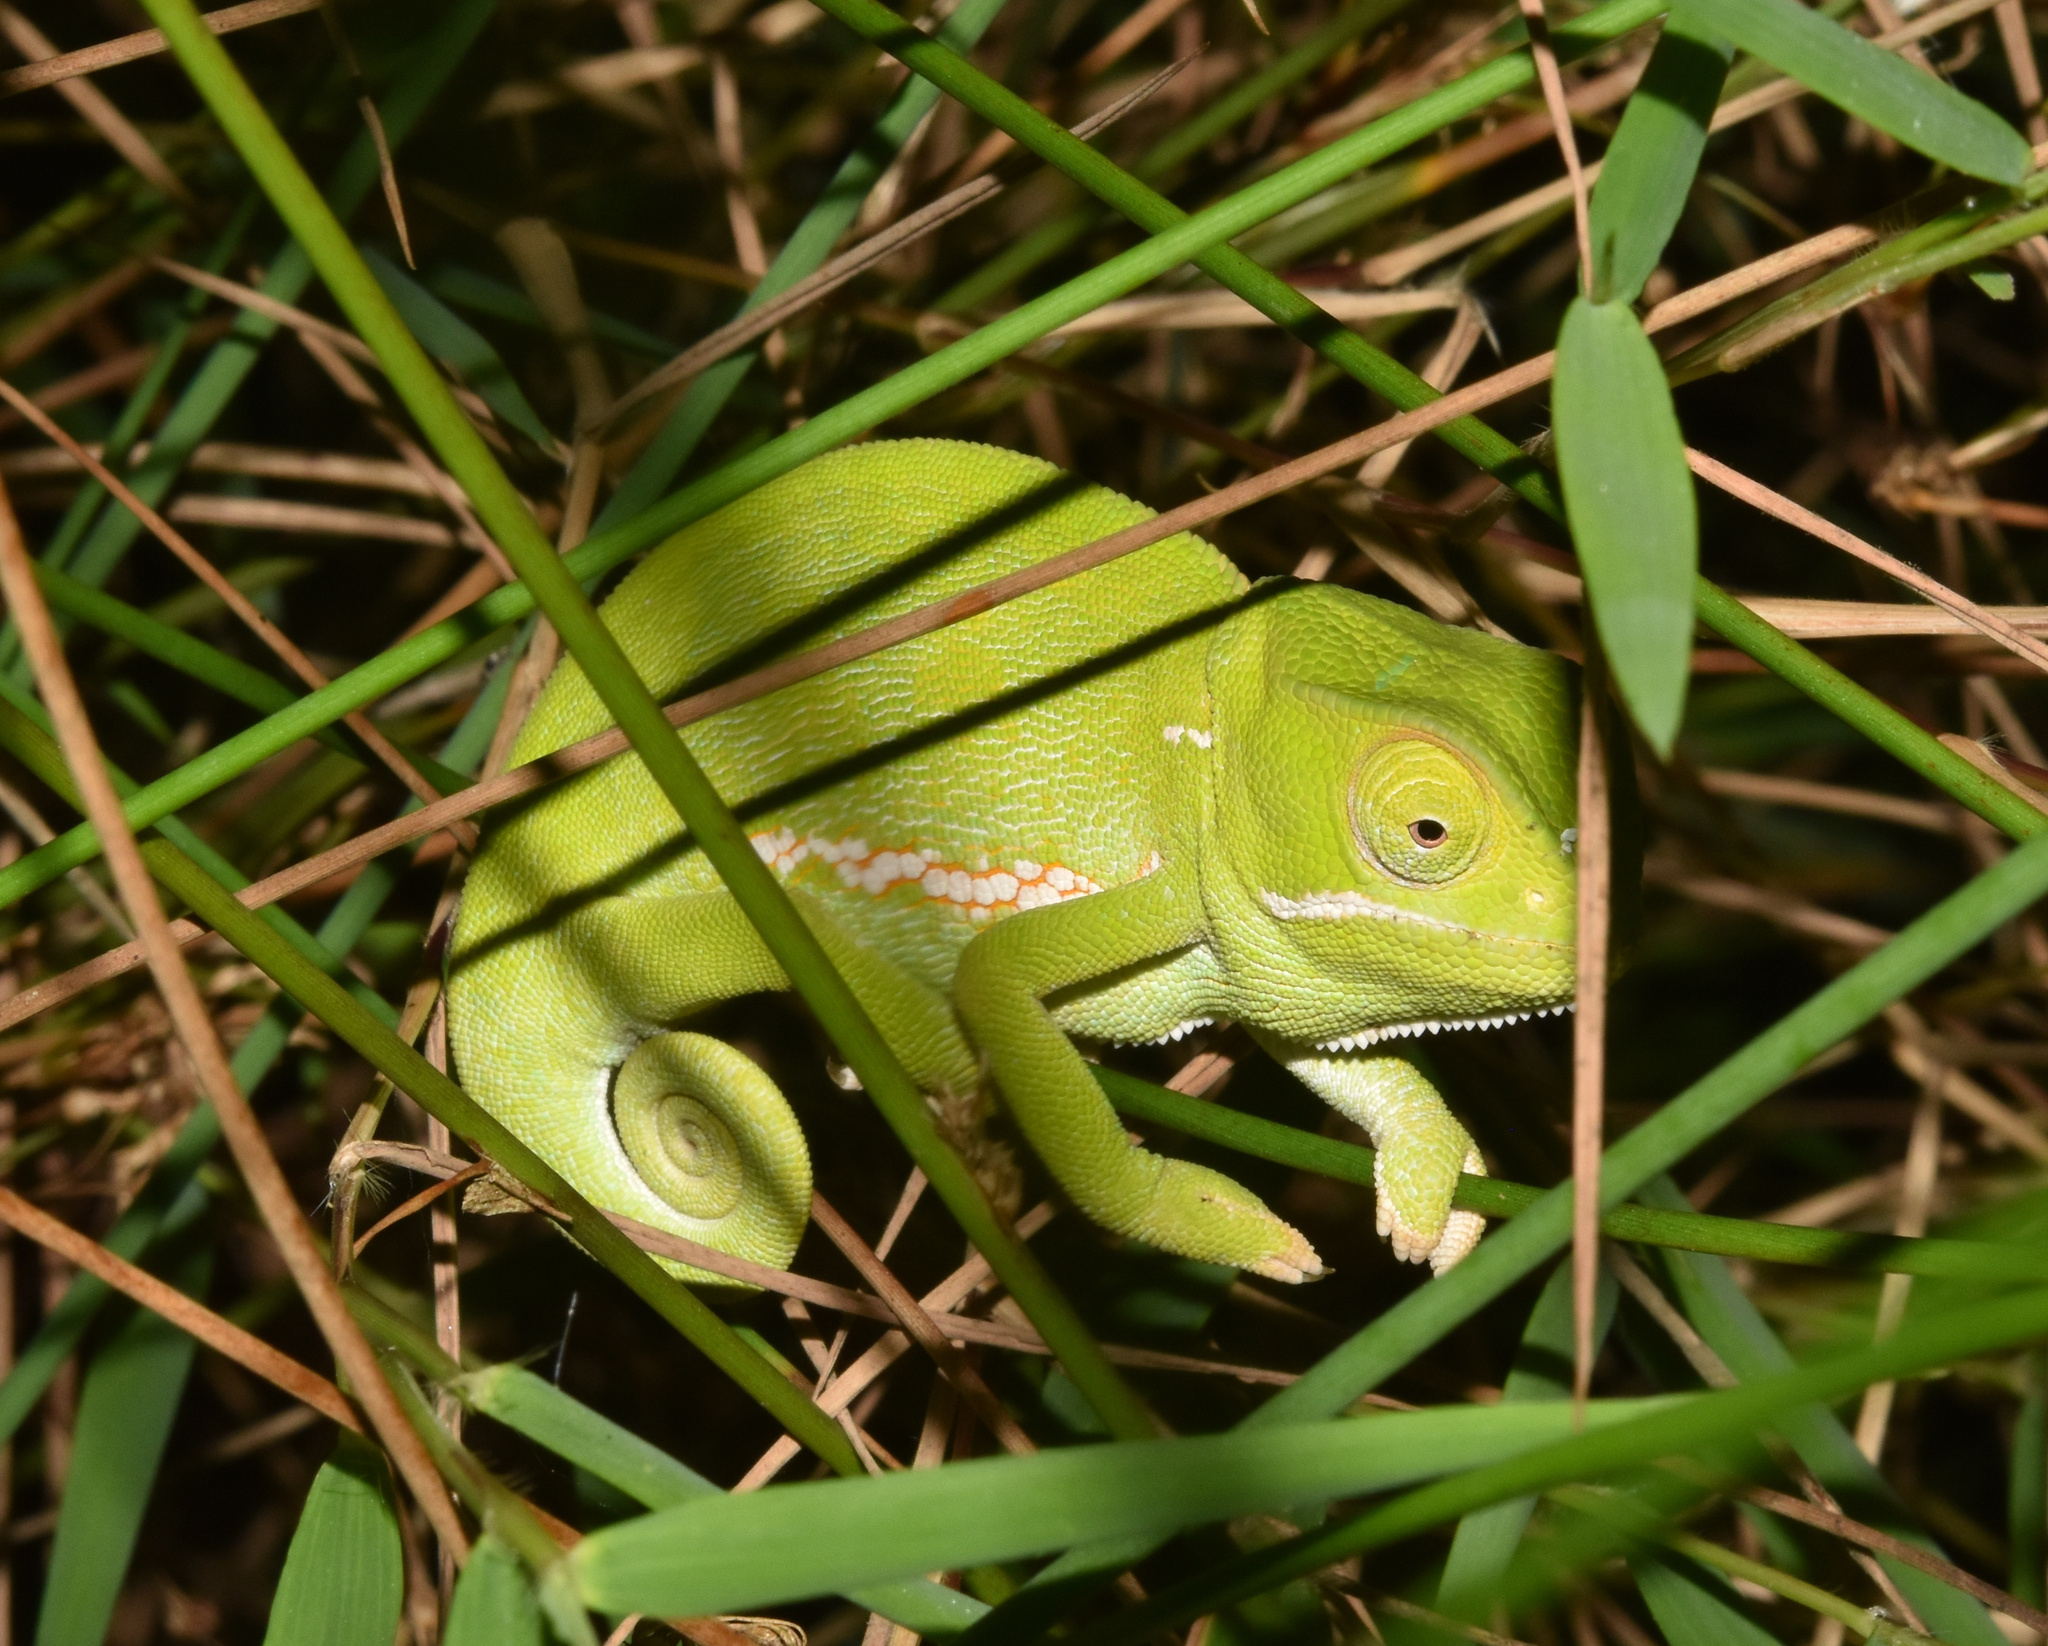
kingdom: Animalia
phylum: Chordata
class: Squamata
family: Chamaeleonidae
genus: Chamaeleo
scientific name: Chamaeleo dilepis
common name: Flapneck chameleon
